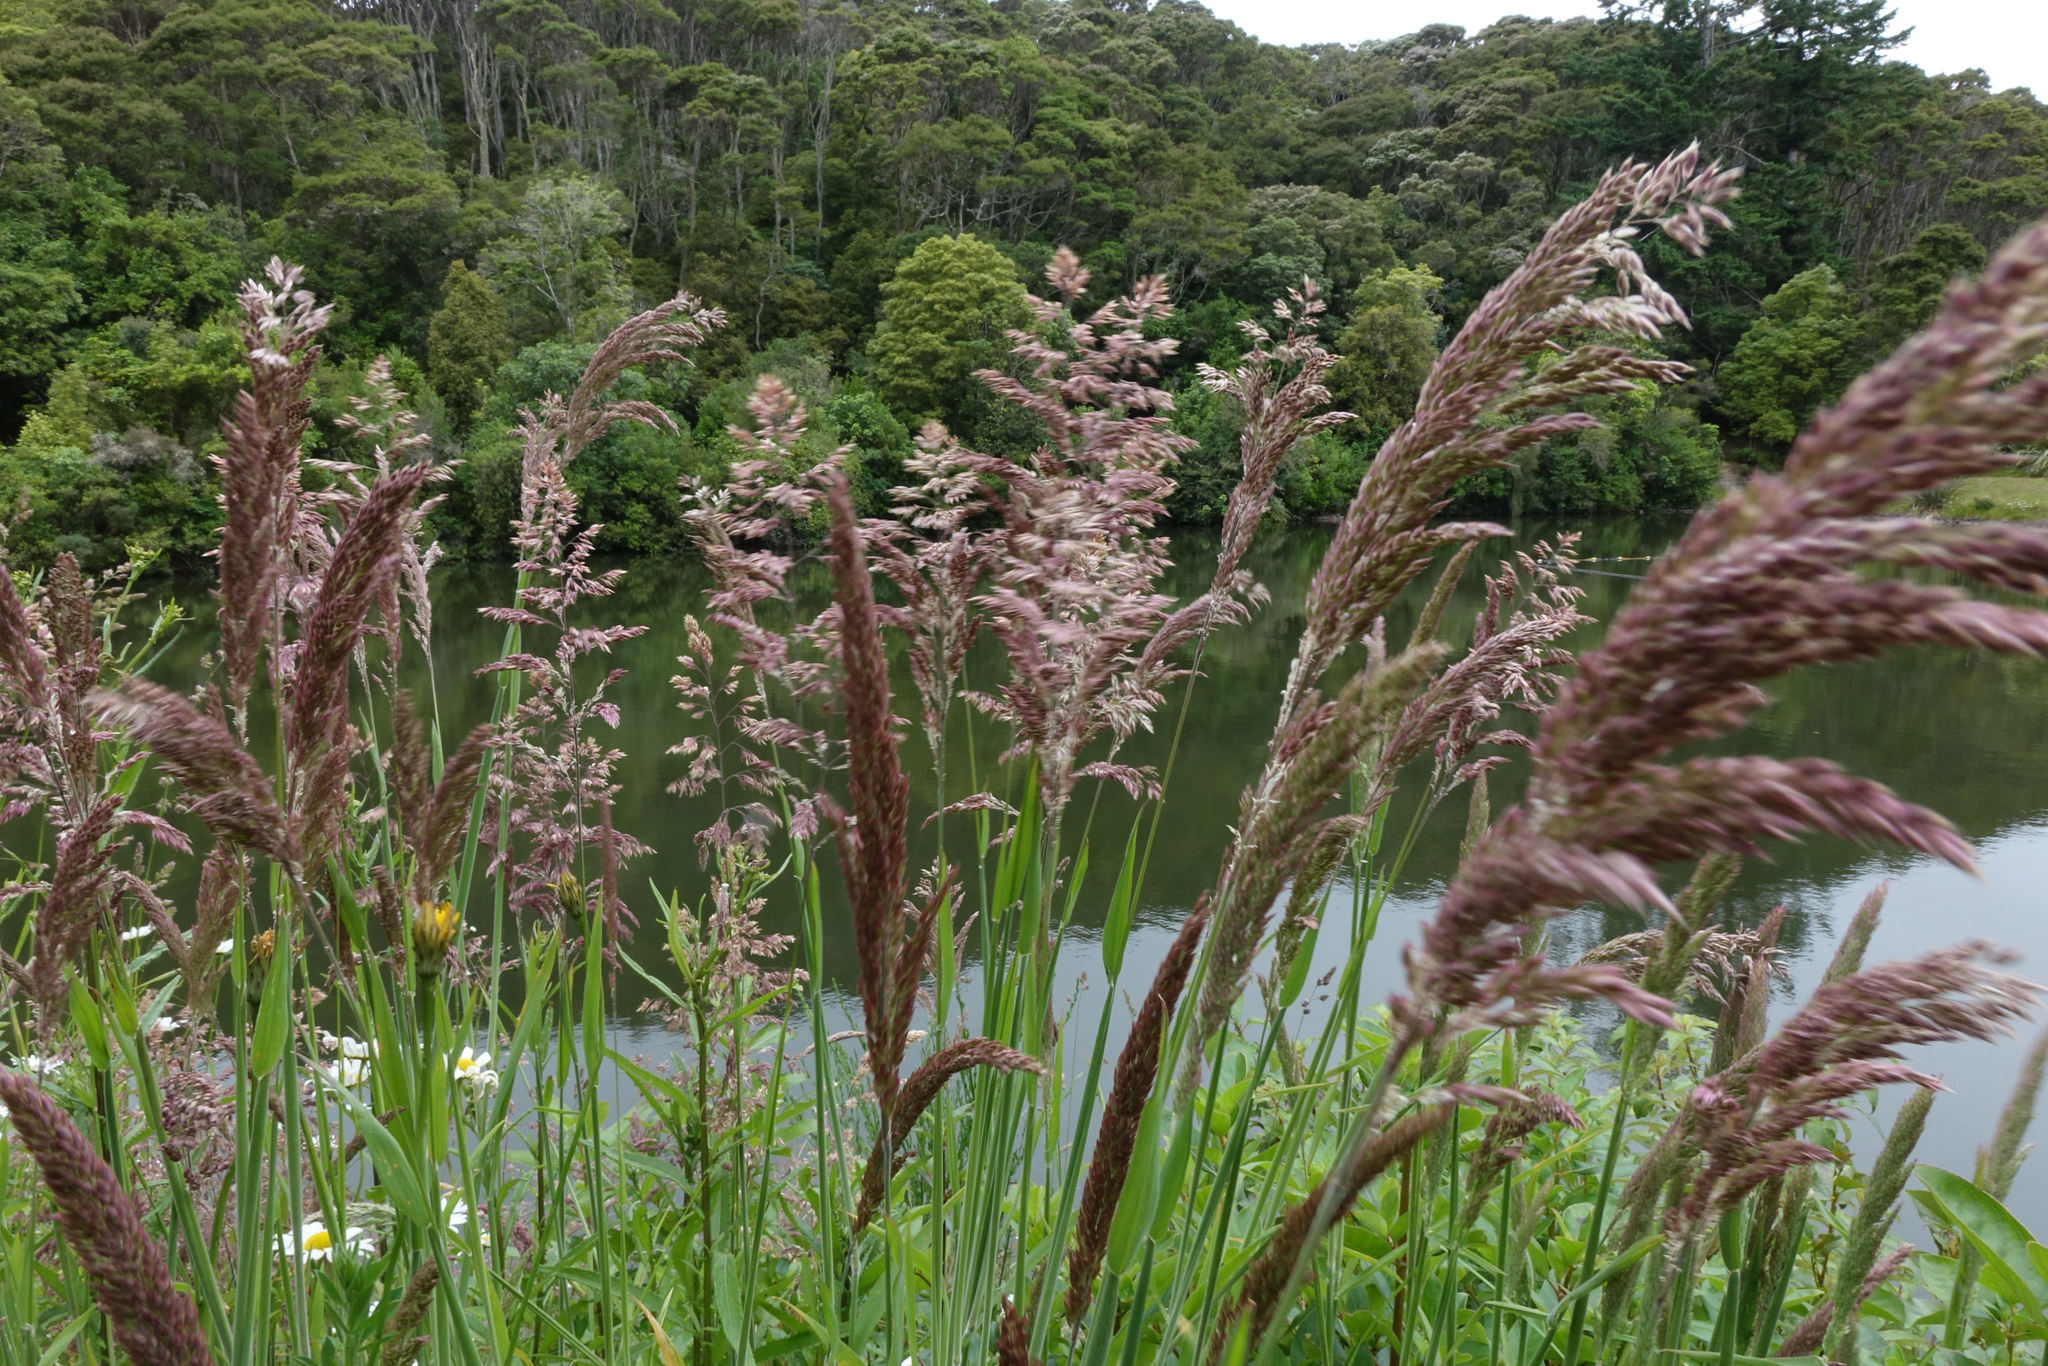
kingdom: Plantae
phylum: Tracheophyta
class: Liliopsida
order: Poales
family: Poaceae
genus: Holcus
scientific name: Holcus lanatus
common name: Yorkshire-fog
